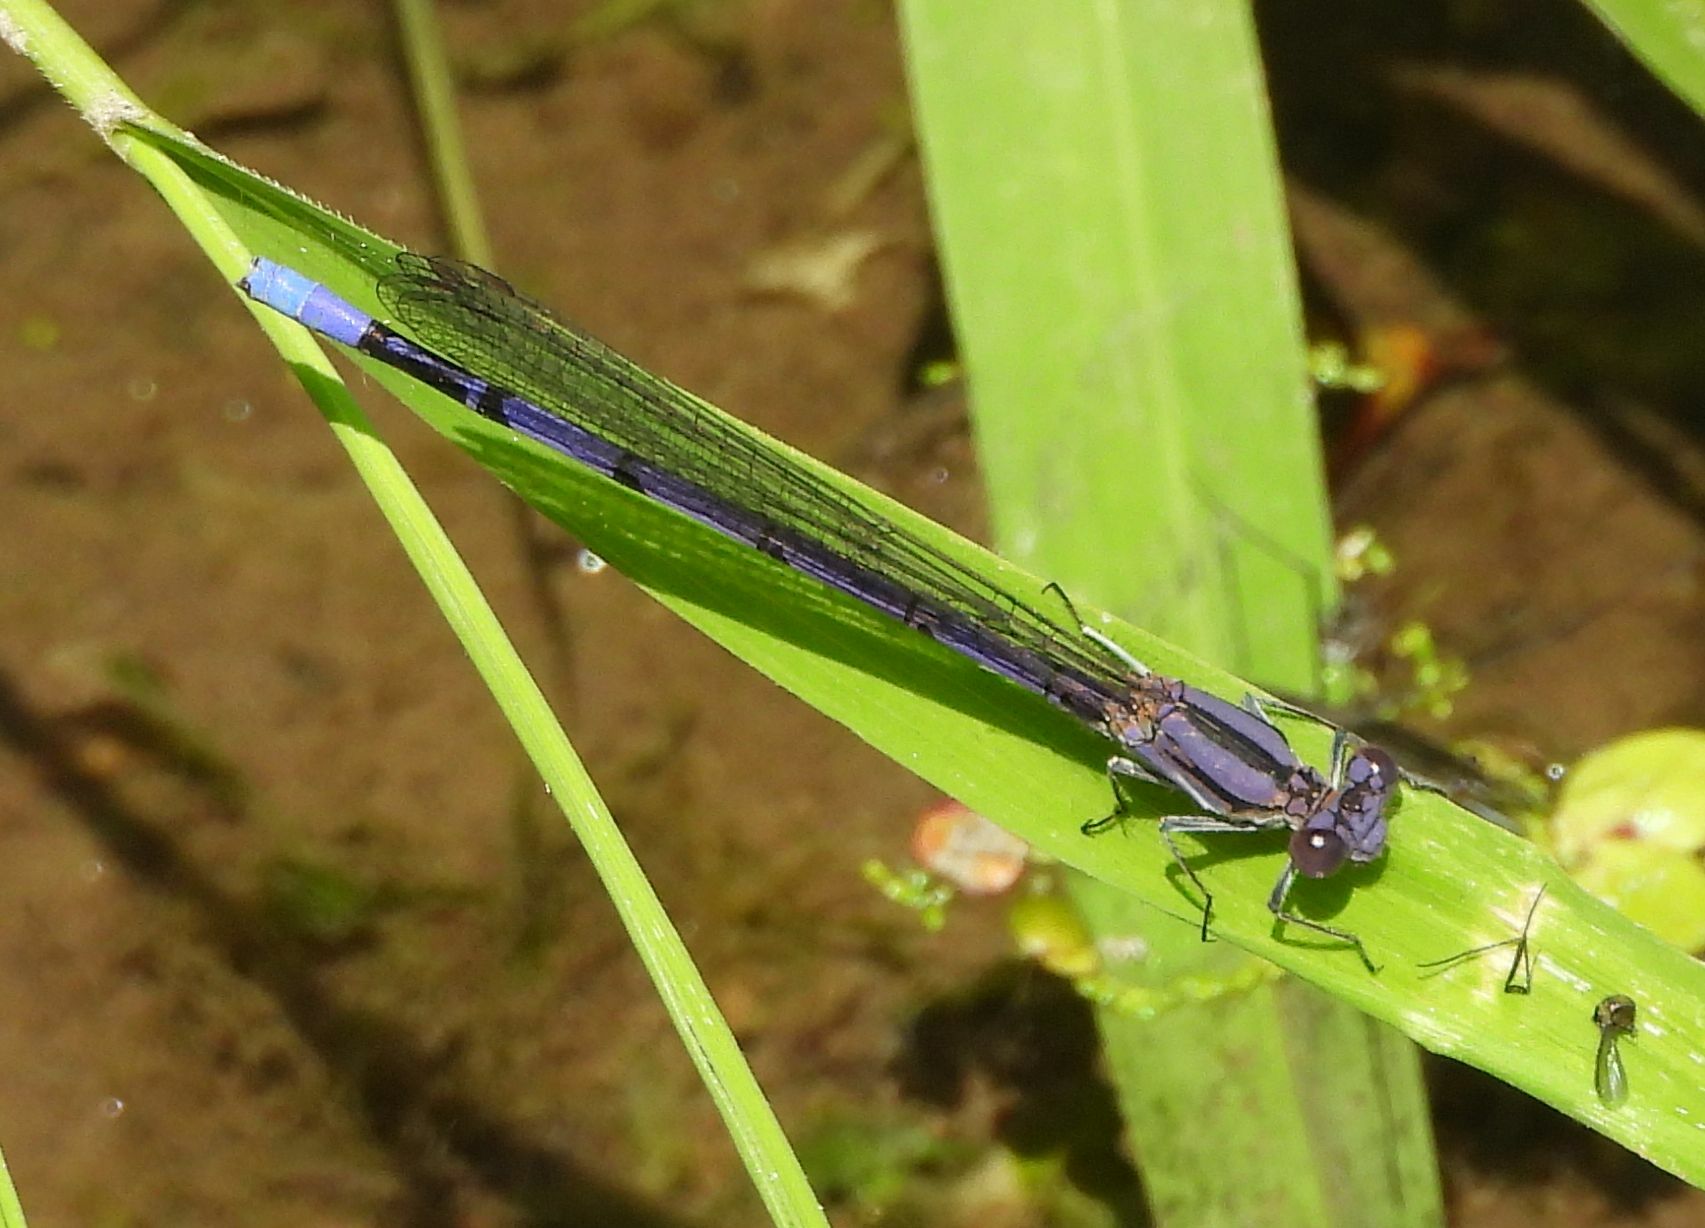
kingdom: Animalia
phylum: Arthropoda
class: Insecta
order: Odonata
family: Coenagrionidae
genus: Argia
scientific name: Argia fumipennis
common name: Variable dancer
